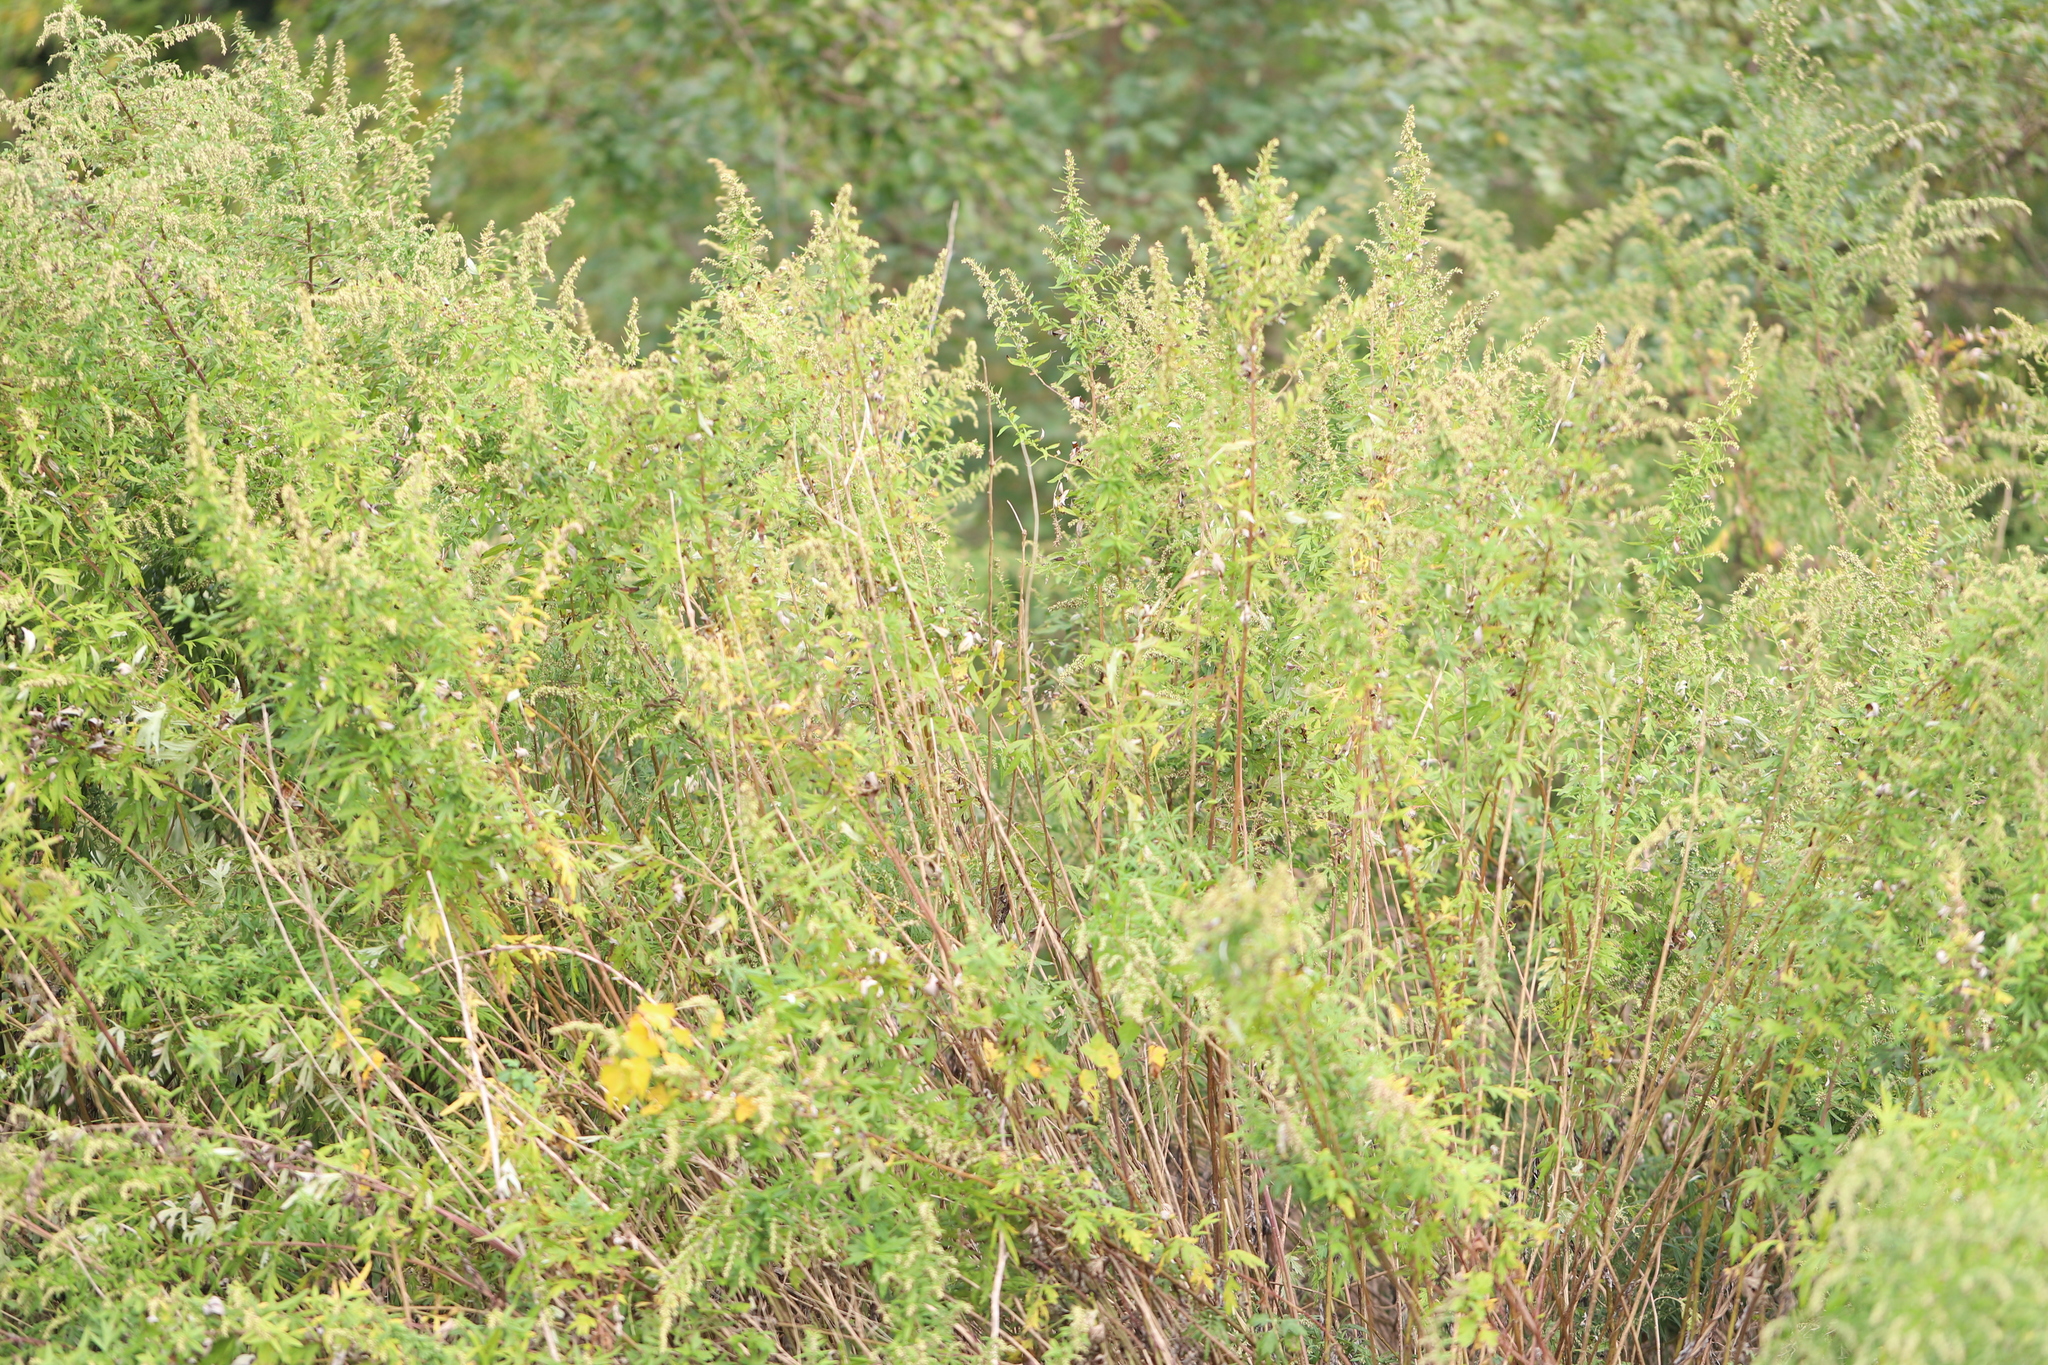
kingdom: Plantae
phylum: Tracheophyta
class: Magnoliopsida
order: Asterales
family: Asteraceae
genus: Artemisia
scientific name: Artemisia vulgaris
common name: Mugwort
